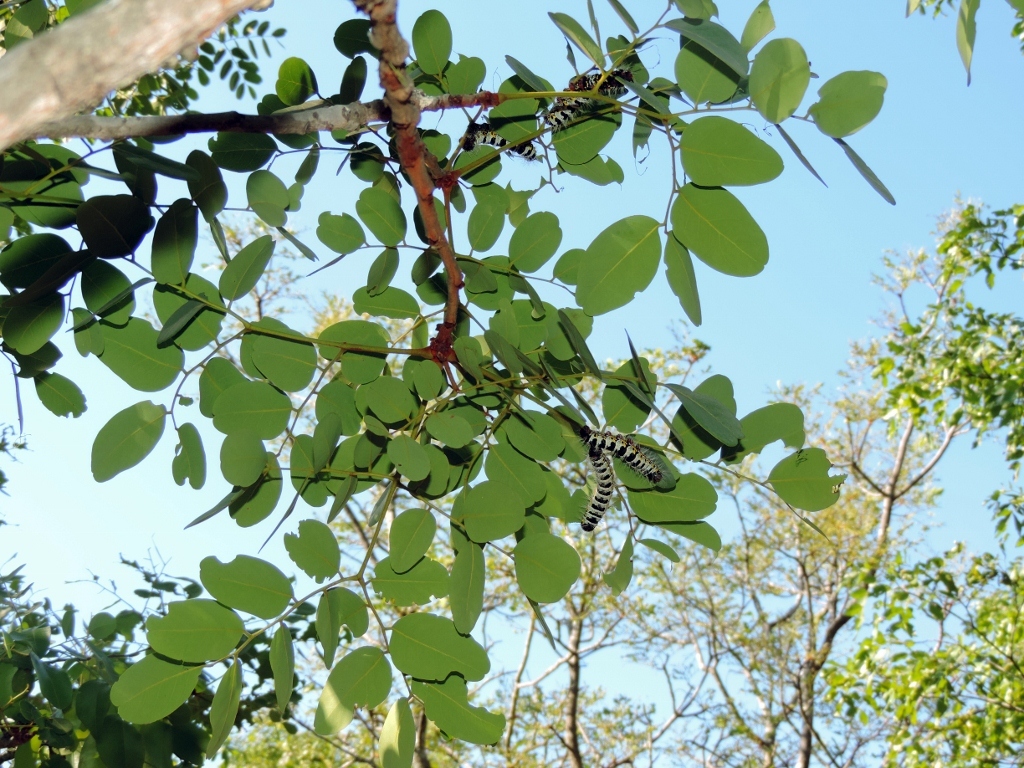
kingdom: Plantae
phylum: Tracheophyta
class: Magnoliopsida
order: Fabales
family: Fabaceae
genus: Burkea
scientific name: Burkea africana
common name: Mkalati tree
